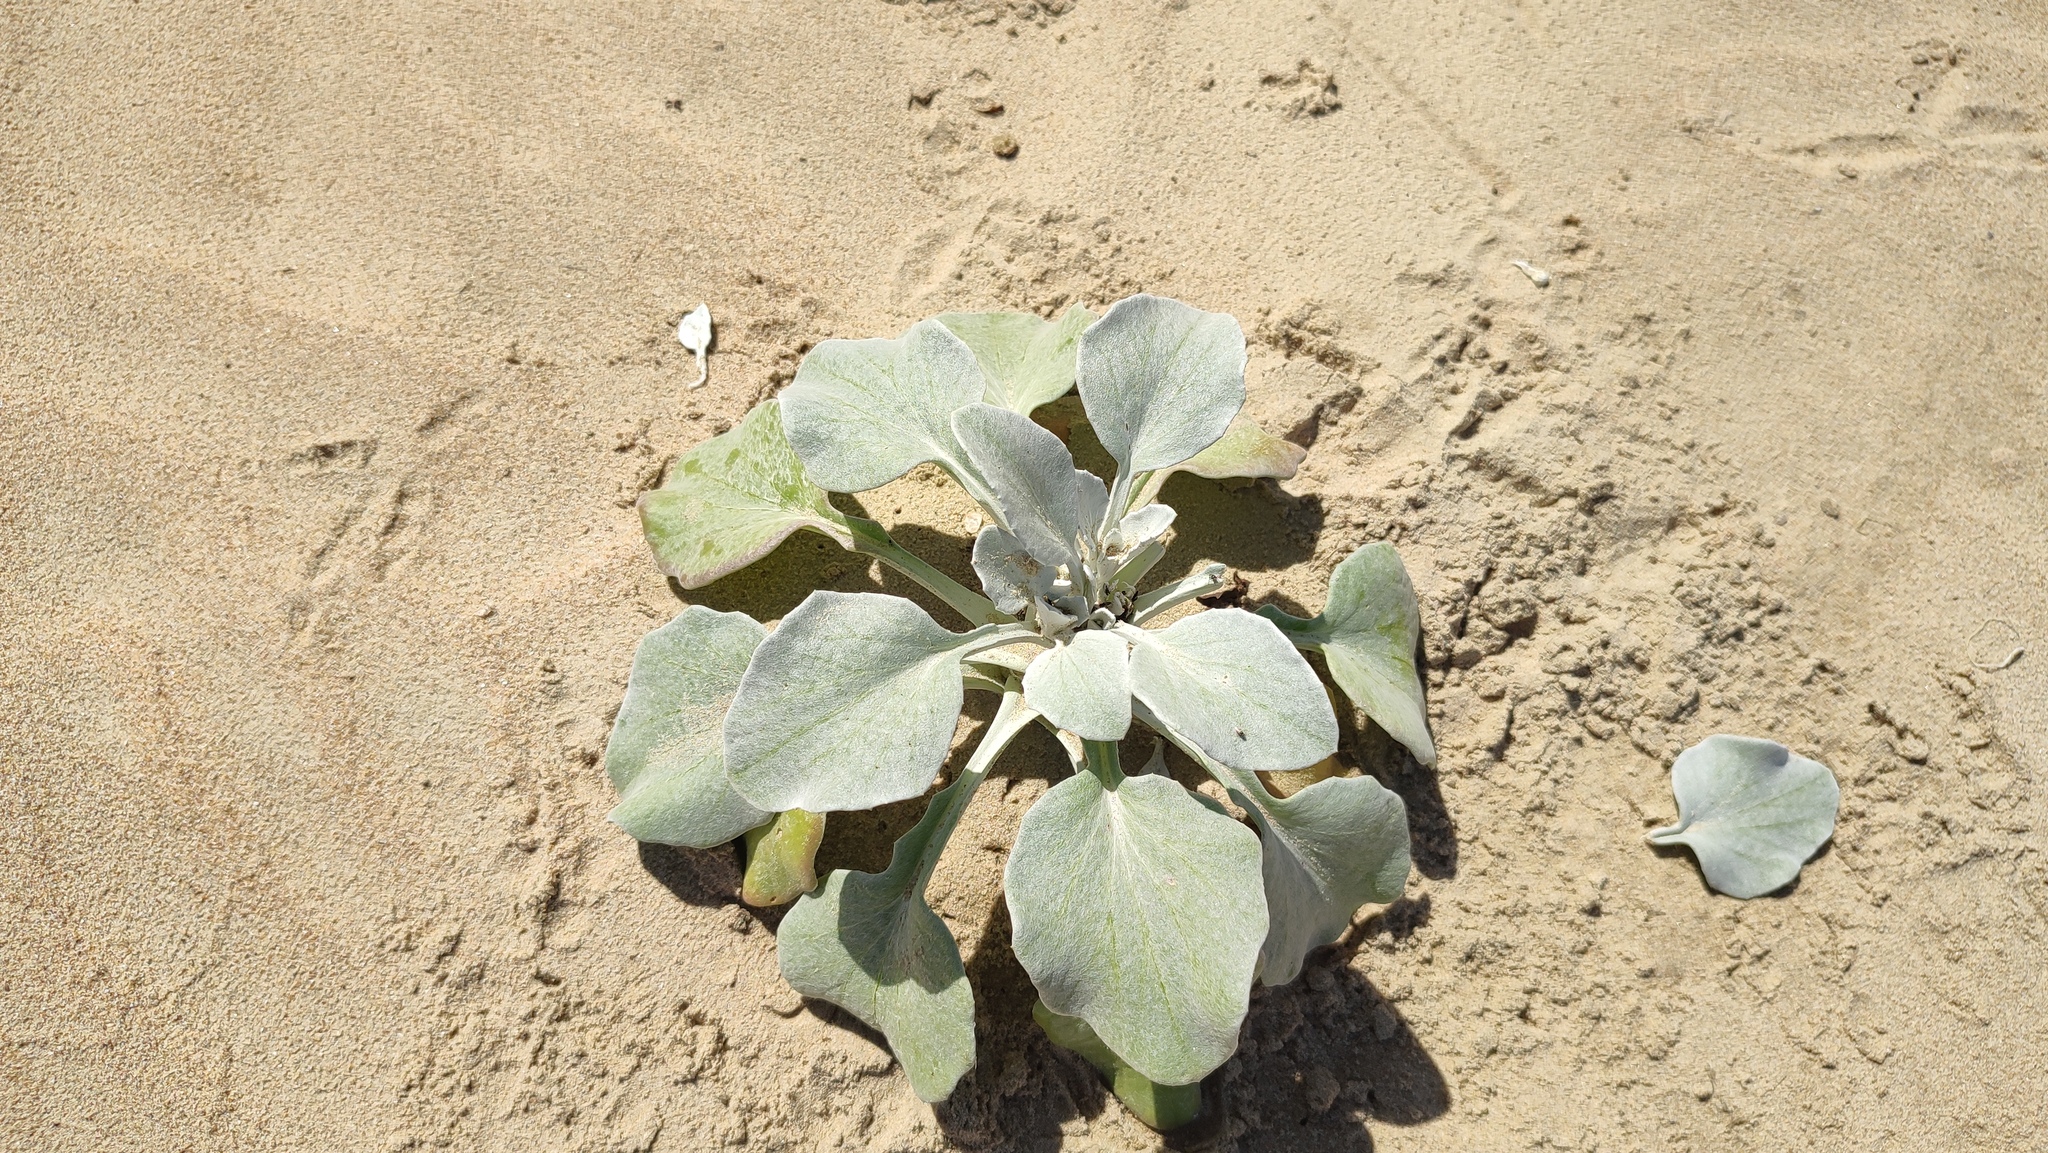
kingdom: Plantae
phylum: Tracheophyta
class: Magnoliopsida
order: Asterales
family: Asteraceae
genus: Arctotheca
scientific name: Arctotheca populifolia
